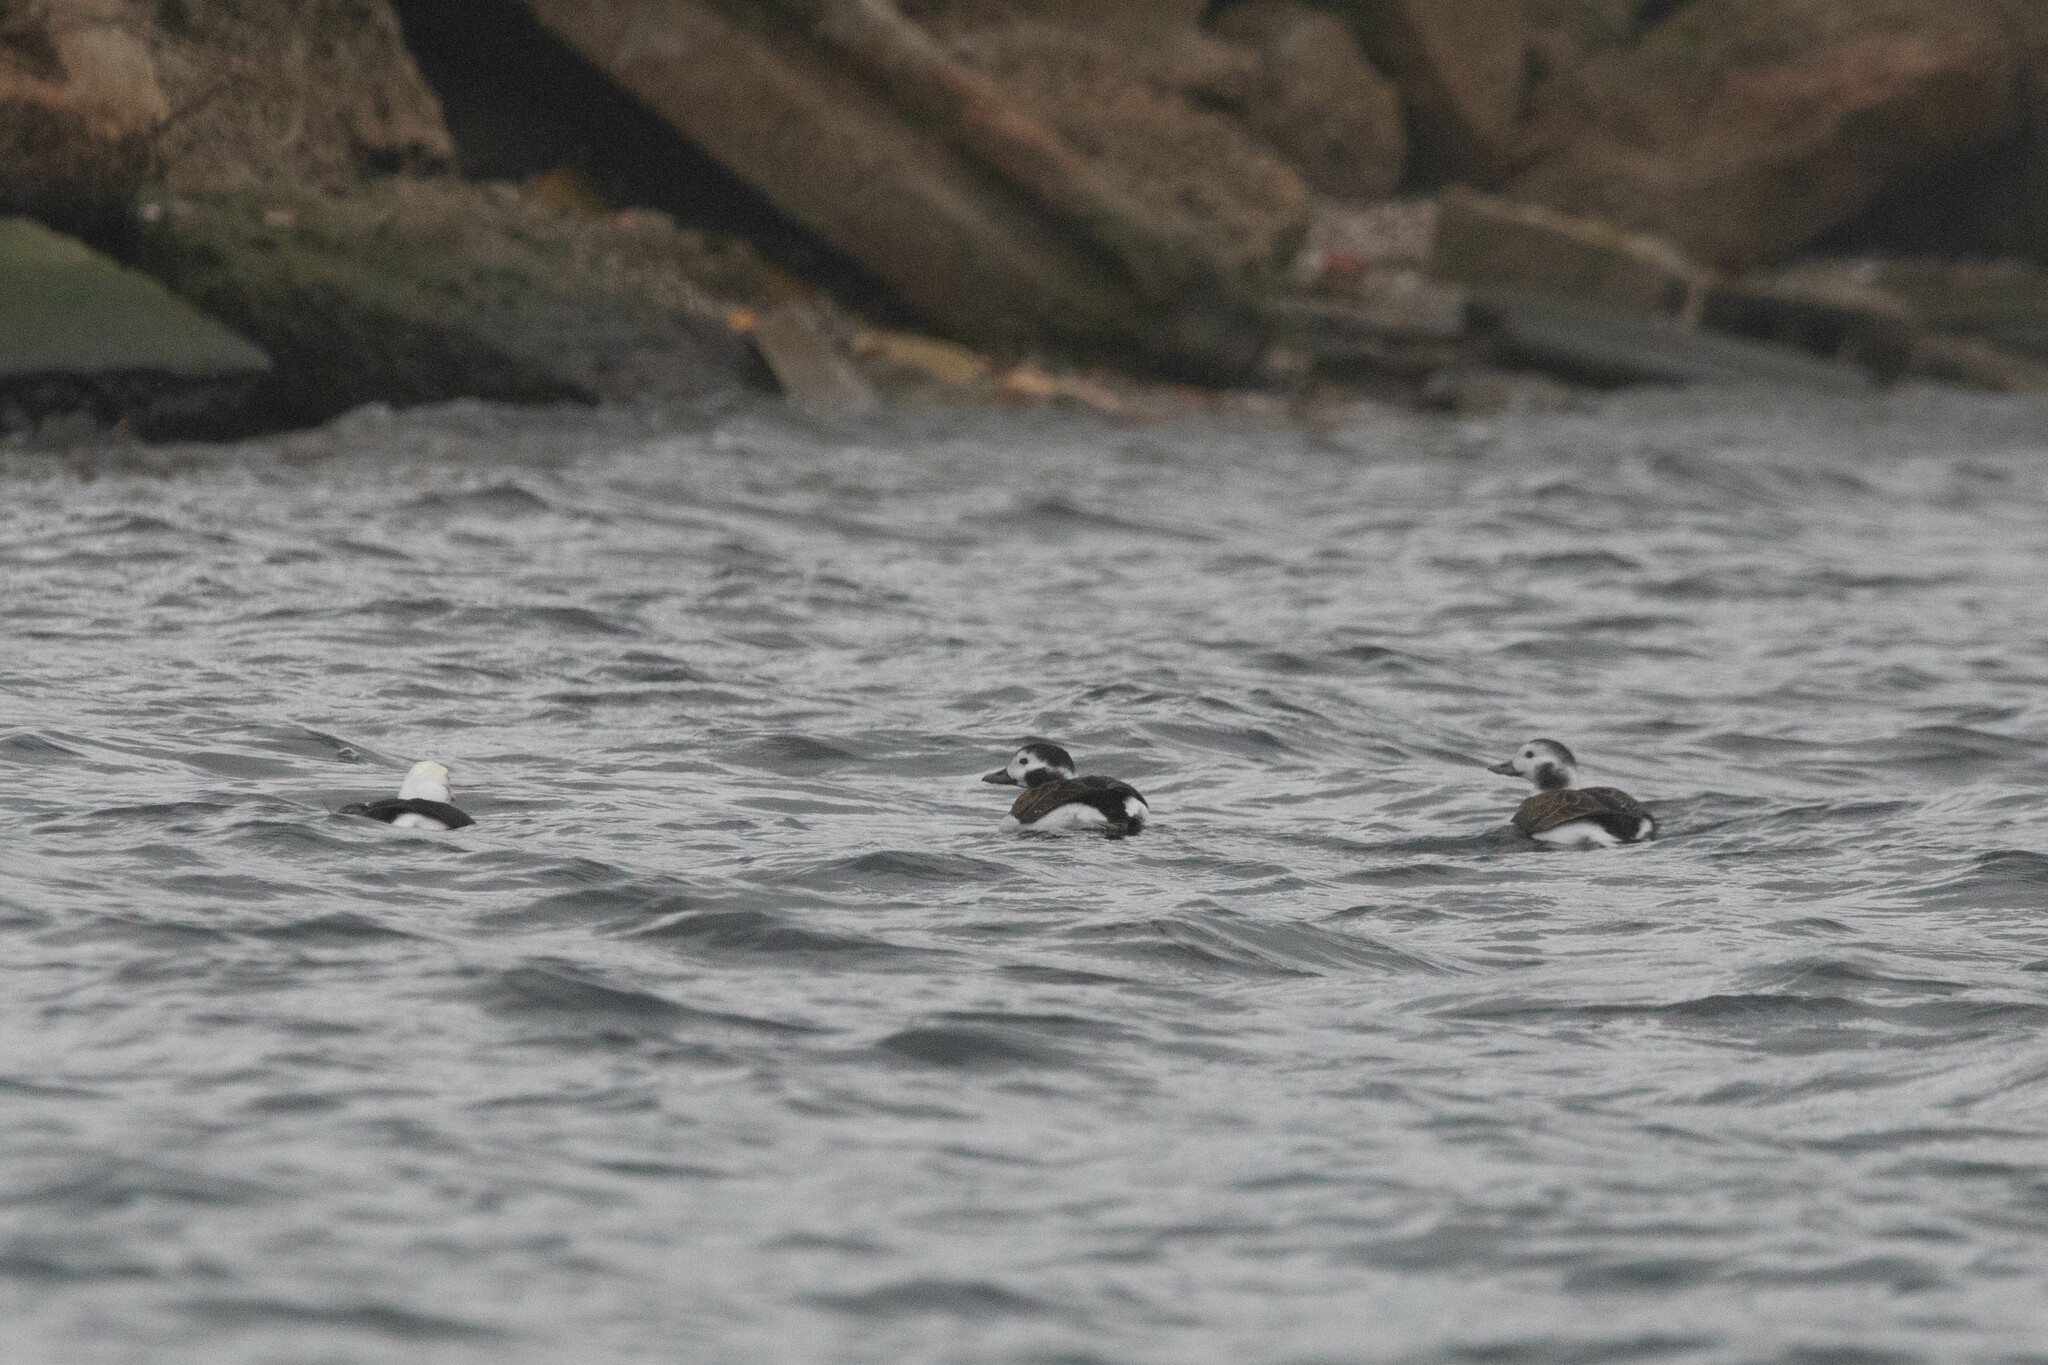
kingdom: Animalia
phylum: Chordata
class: Aves
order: Anseriformes
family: Anatidae
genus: Clangula
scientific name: Clangula hyemalis
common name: Long-tailed duck
